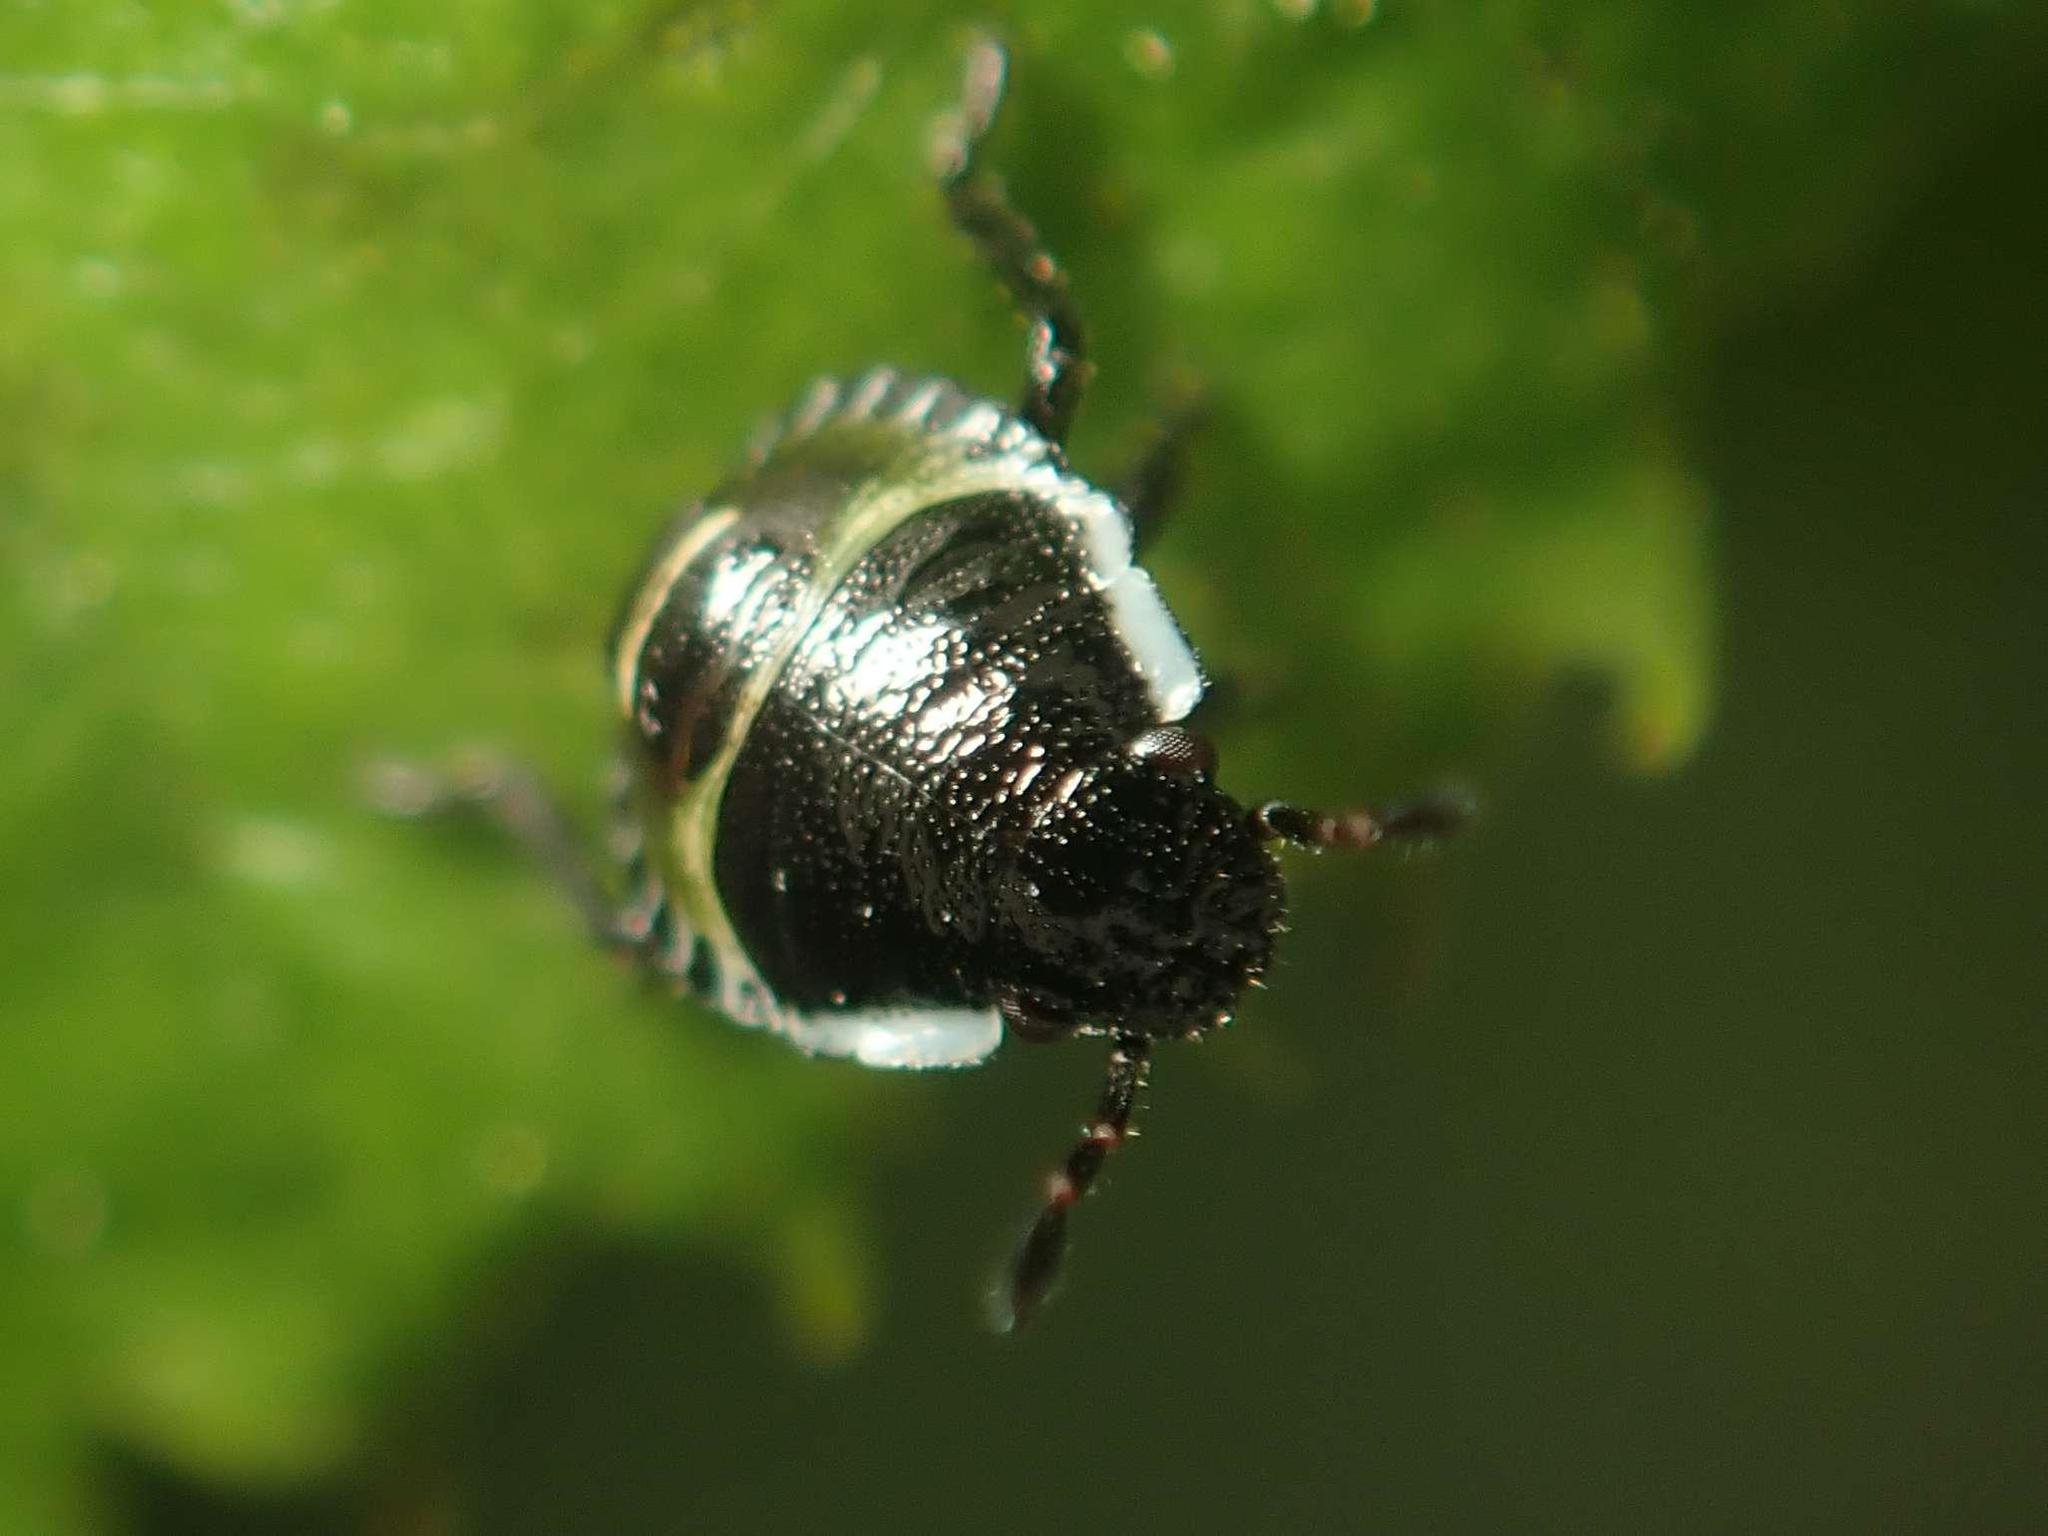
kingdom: Animalia
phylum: Arthropoda
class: Insecta
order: Hemiptera
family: Pentatomidae
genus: Palomena
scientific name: Palomena prasina
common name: Green shieldbug
